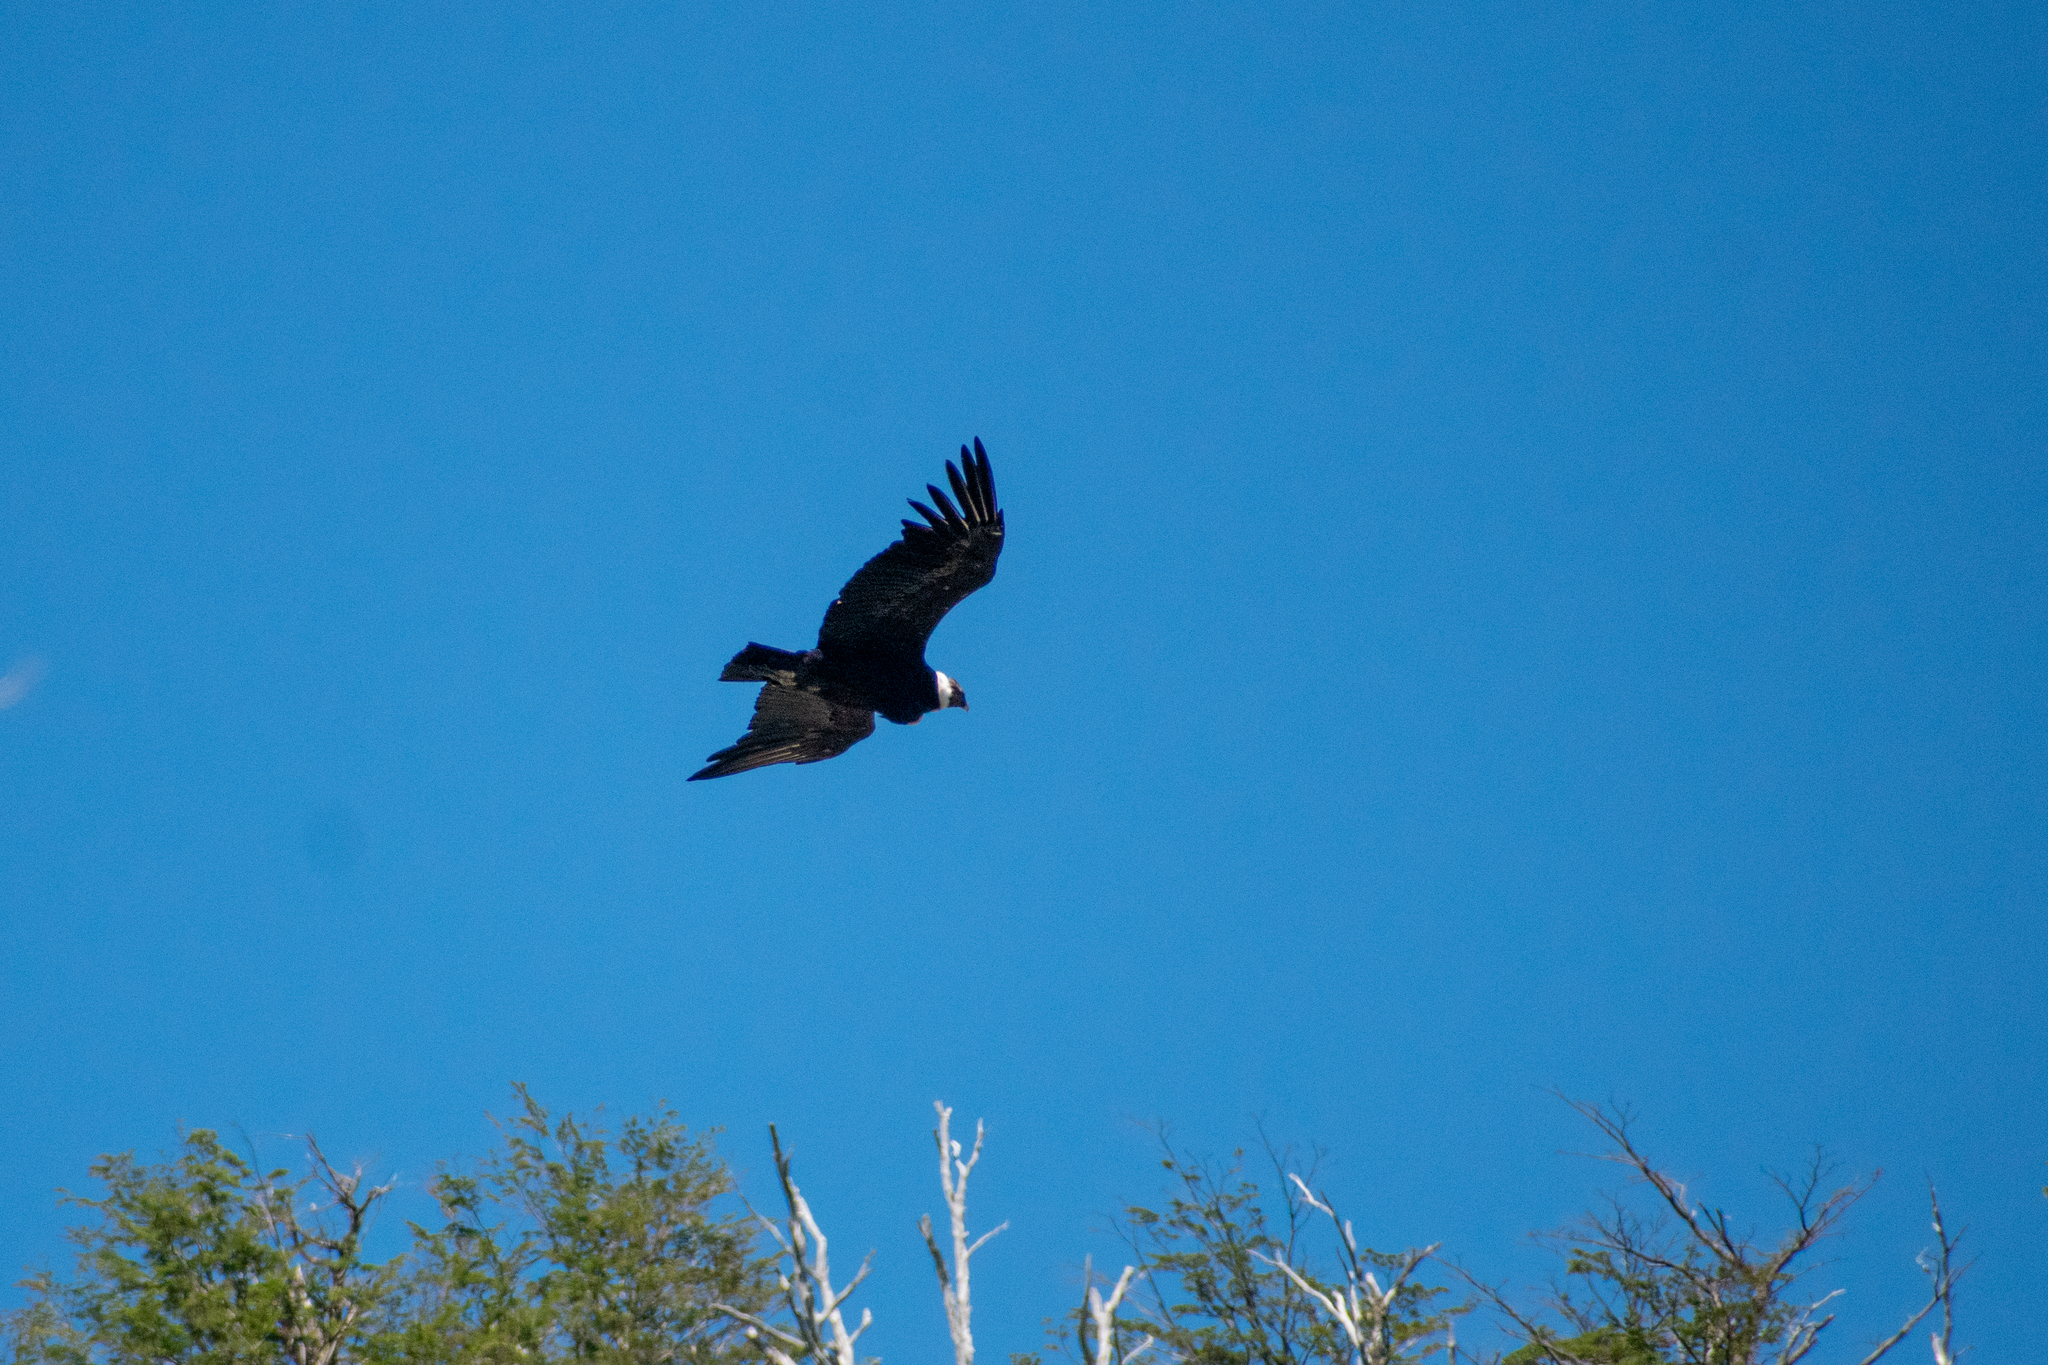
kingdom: Animalia
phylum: Chordata
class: Aves
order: Accipitriformes
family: Cathartidae
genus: Vultur
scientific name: Vultur gryphus
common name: Andean condor
